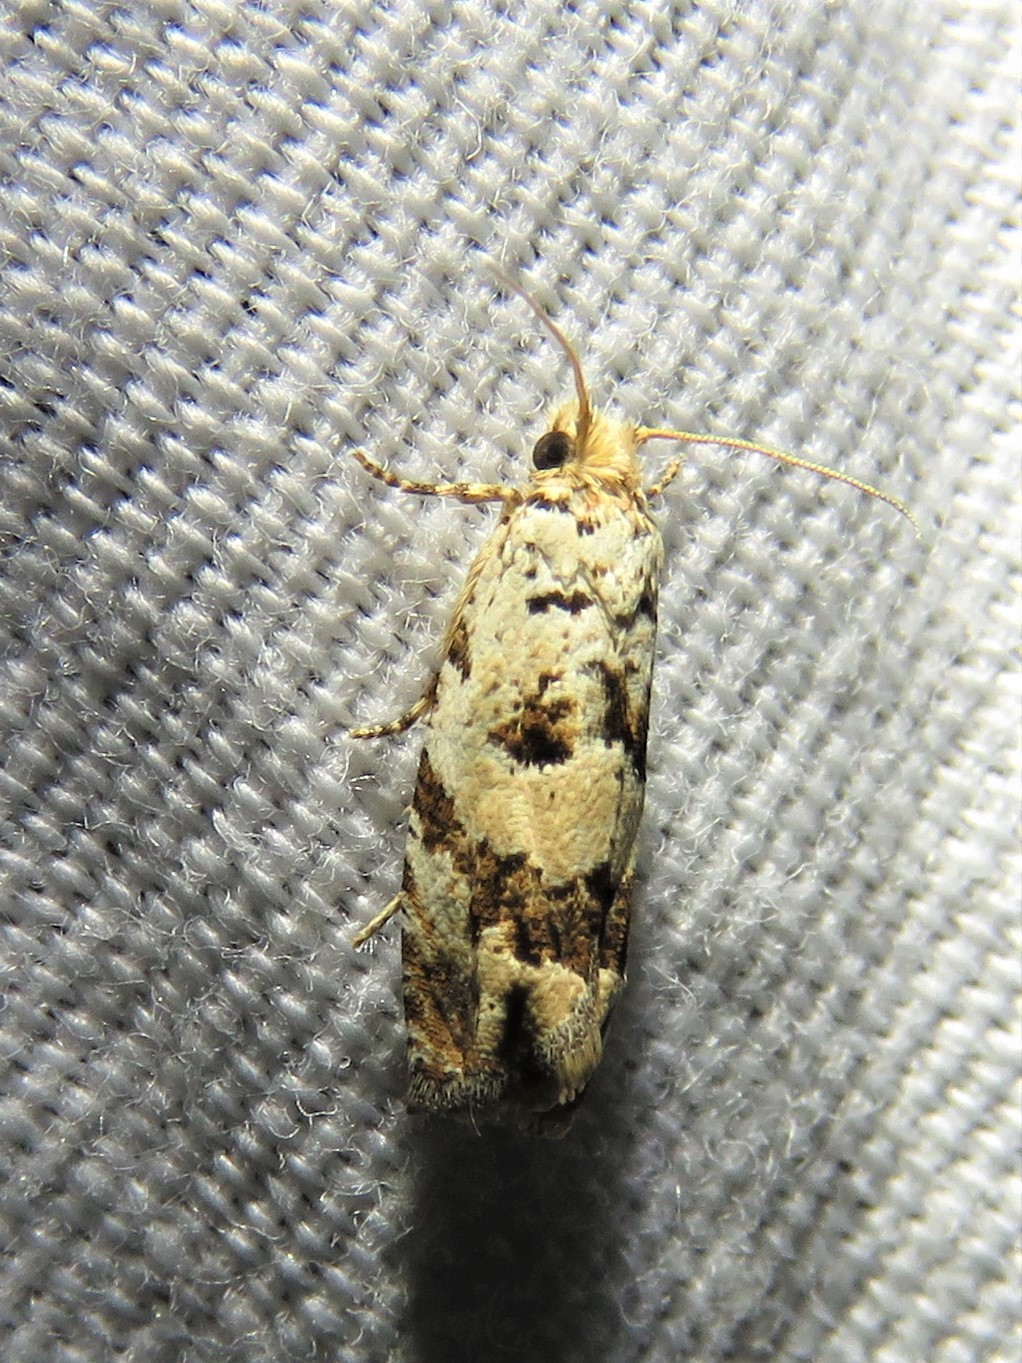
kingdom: Animalia
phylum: Arthropoda
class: Insecta
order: Lepidoptera
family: Tortricidae
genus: Pelochrista
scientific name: Pelochrista matutina
